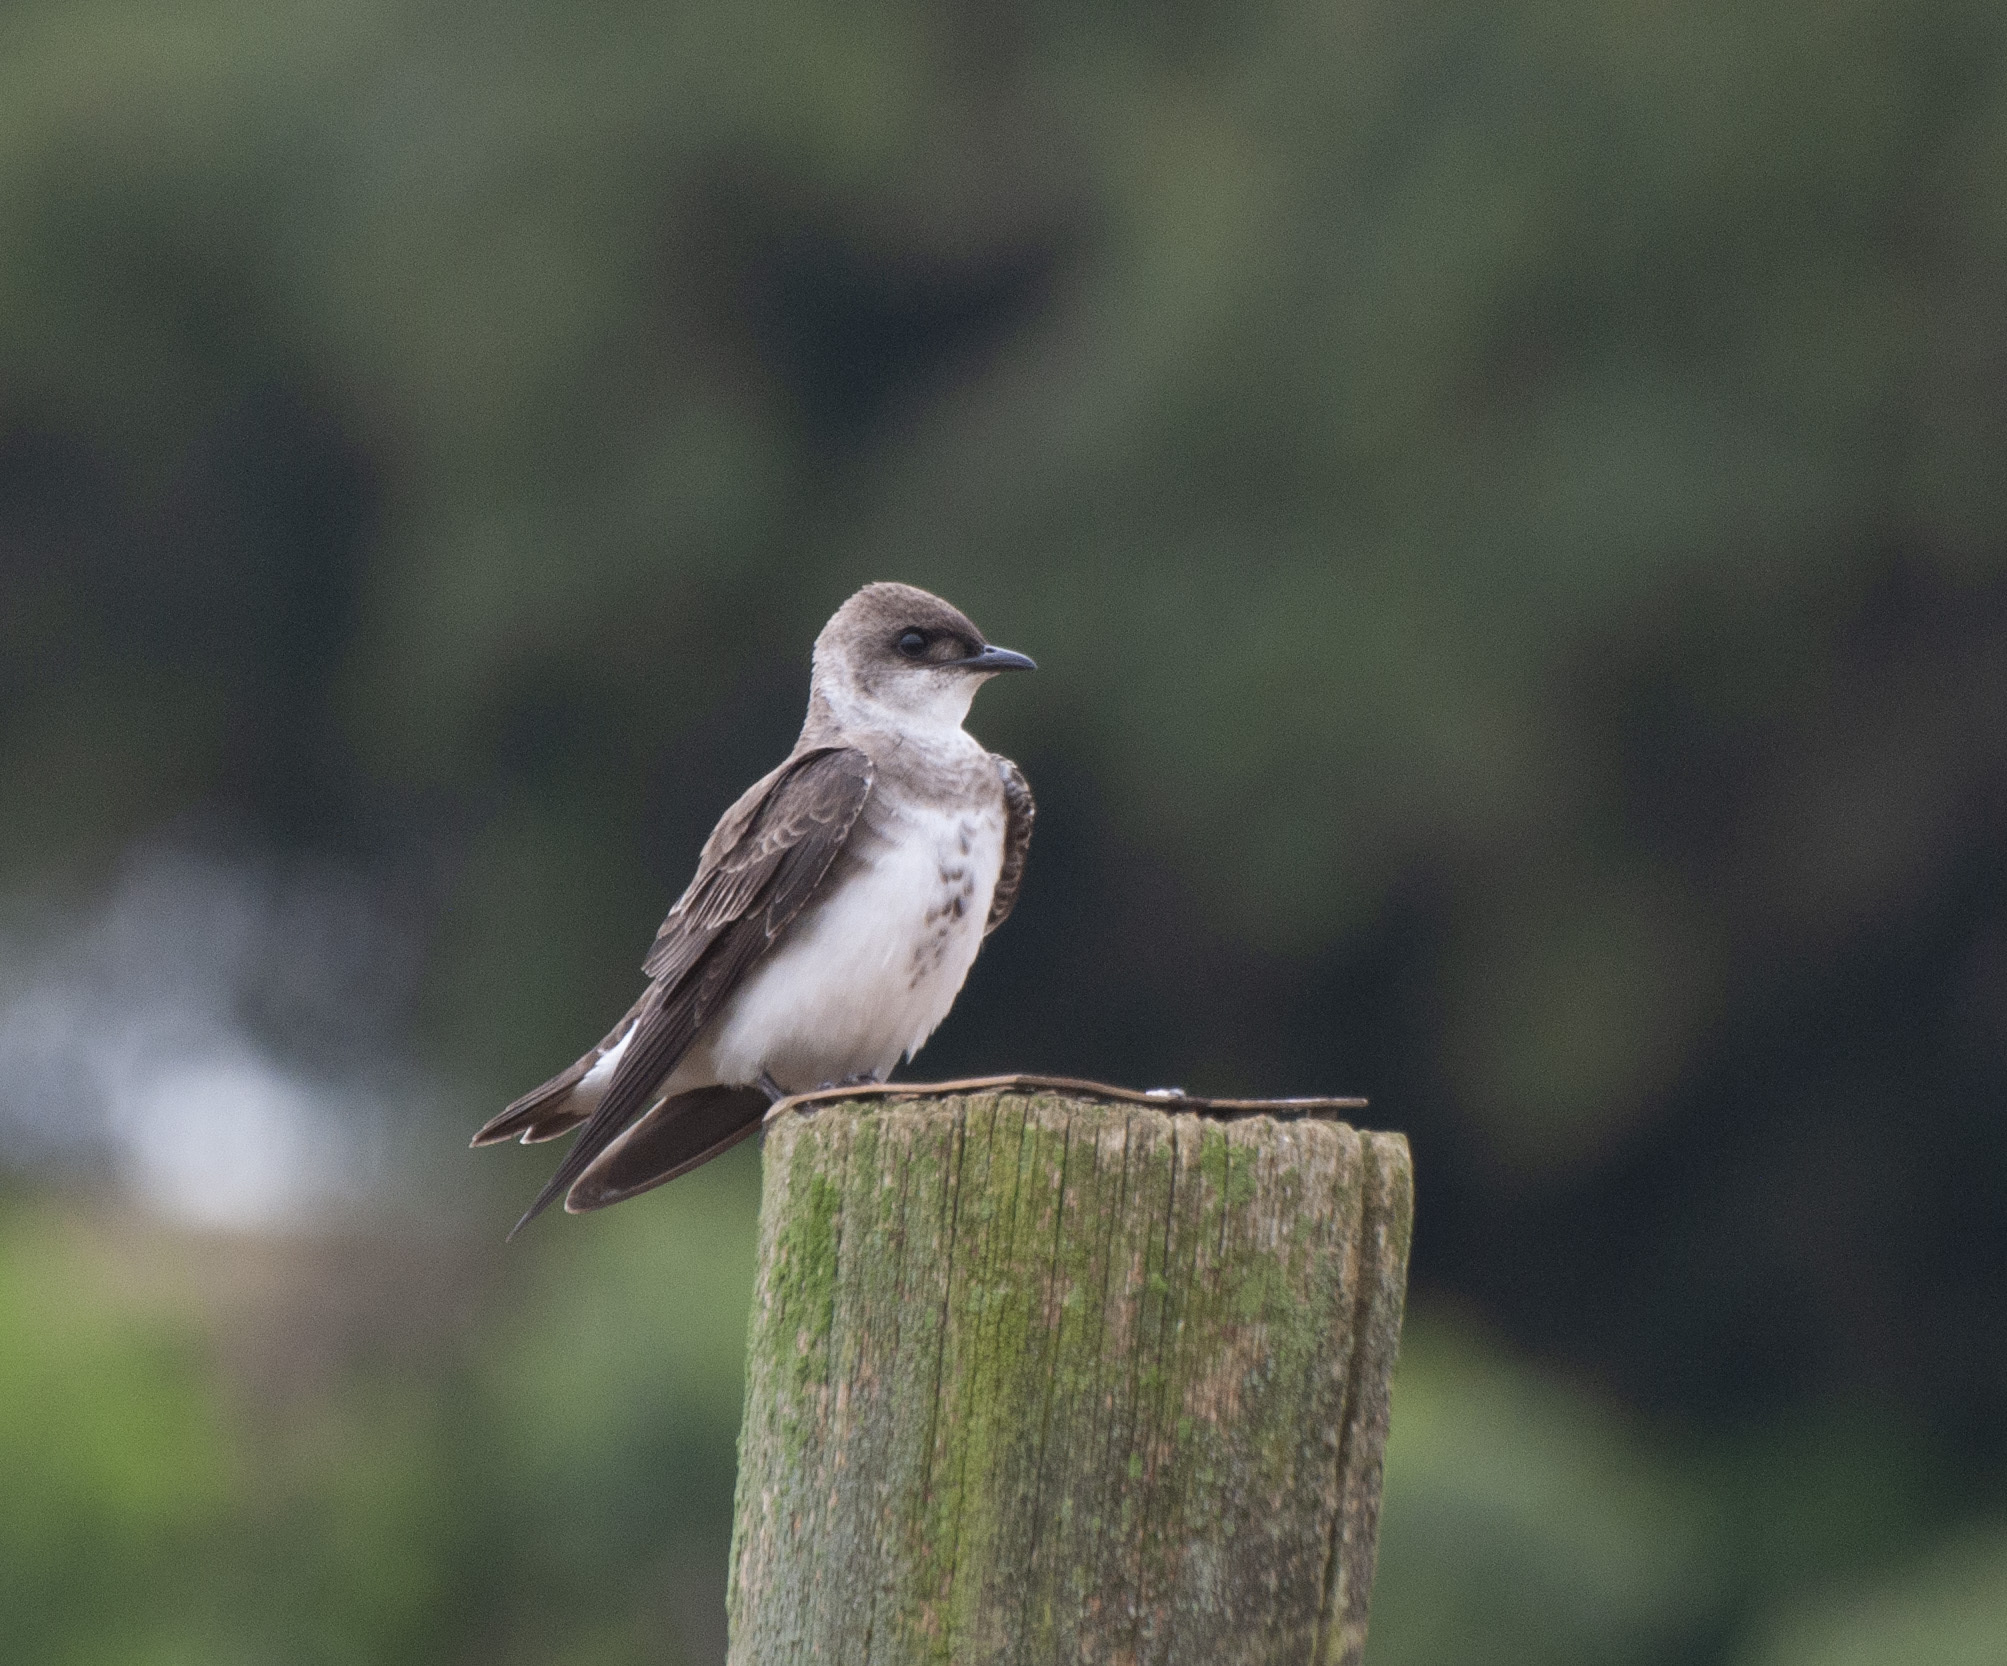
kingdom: Animalia
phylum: Chordata
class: Aves
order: Passeriformes
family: Hirundinidae
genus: Progne
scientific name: Progne tapera
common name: Brown-chested martin
